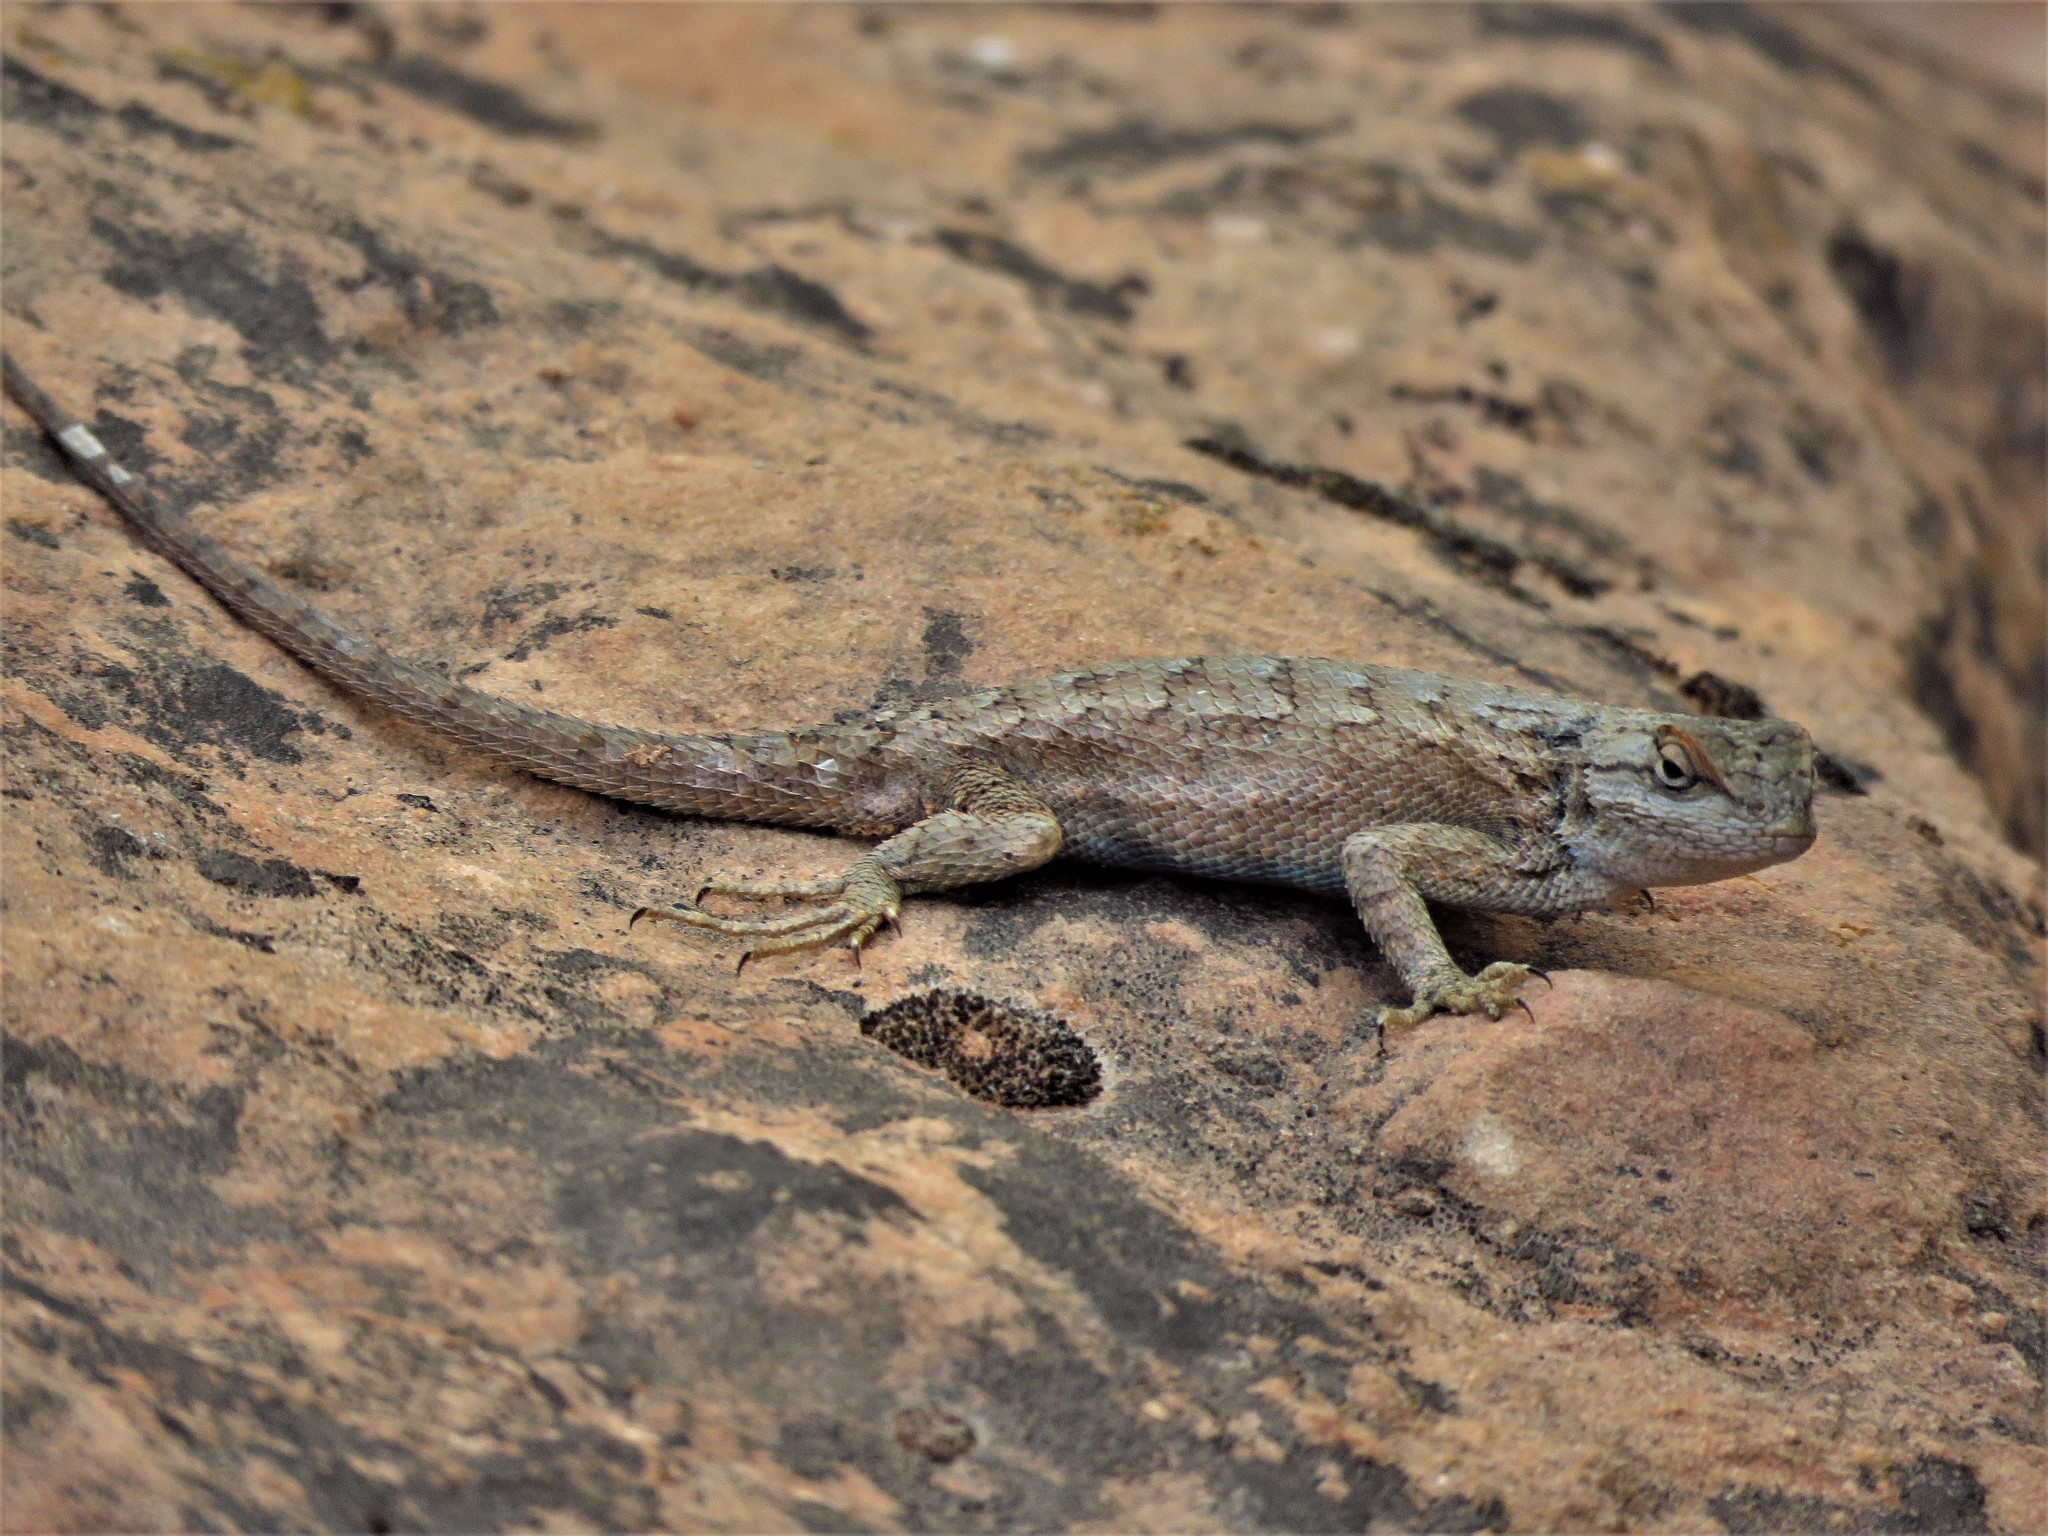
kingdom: Animalia
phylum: Chordata
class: Squamata
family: Phrynosomatidae
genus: Sceloporus
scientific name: Sceloporus tristichus
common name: Plateau fence lizard
